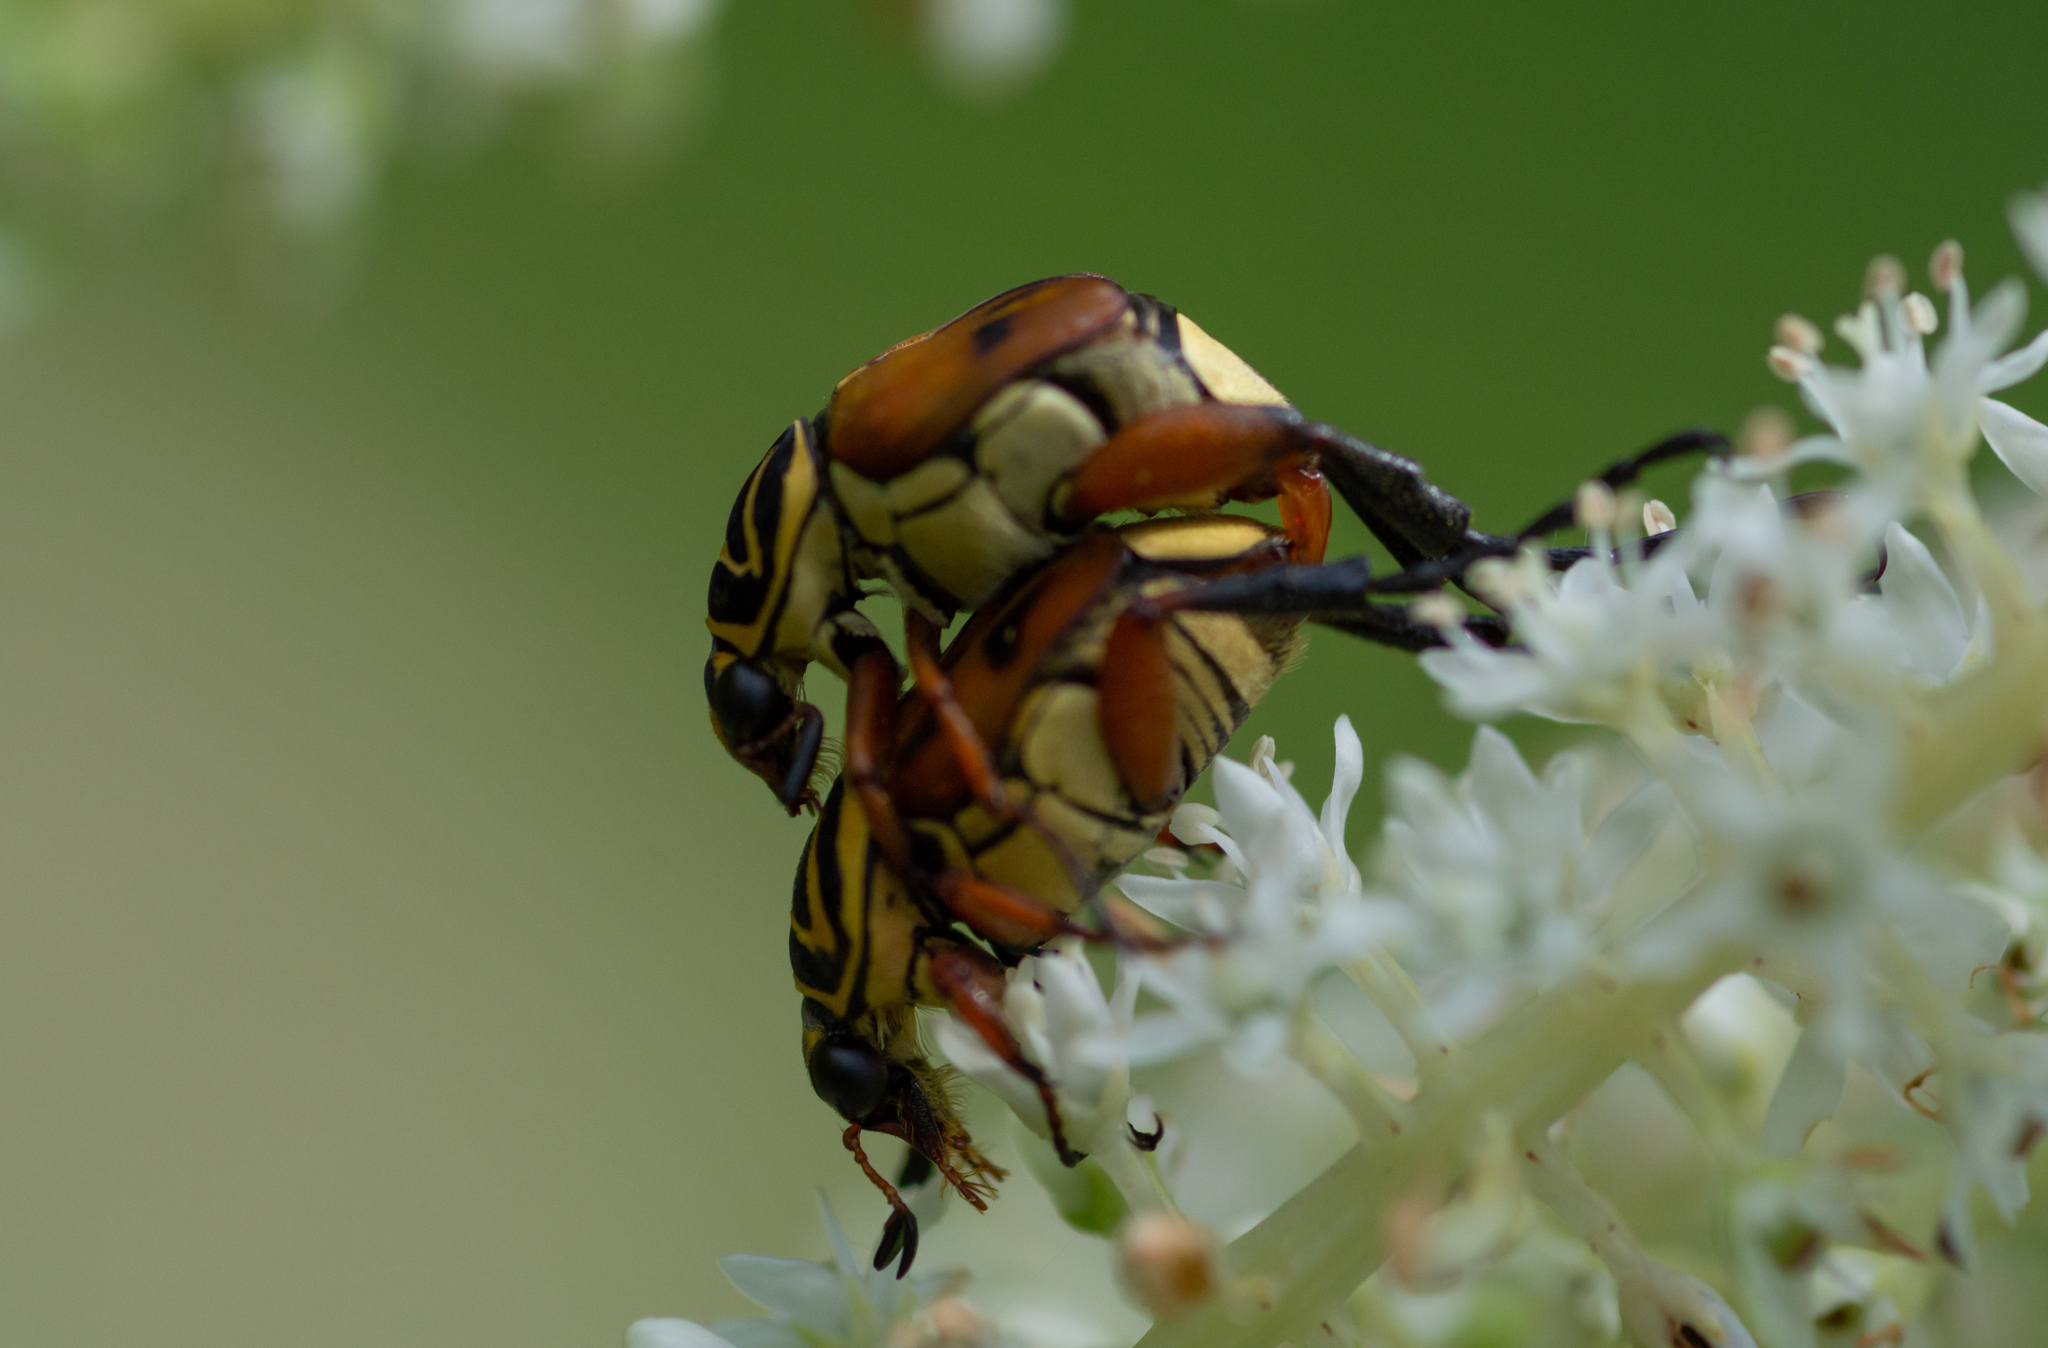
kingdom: Animalia
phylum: Arthropoda
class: Insecta
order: Coleoptera
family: Scarabaeidae
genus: Trigonopeltastes
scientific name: Trigonopeltastes delta
